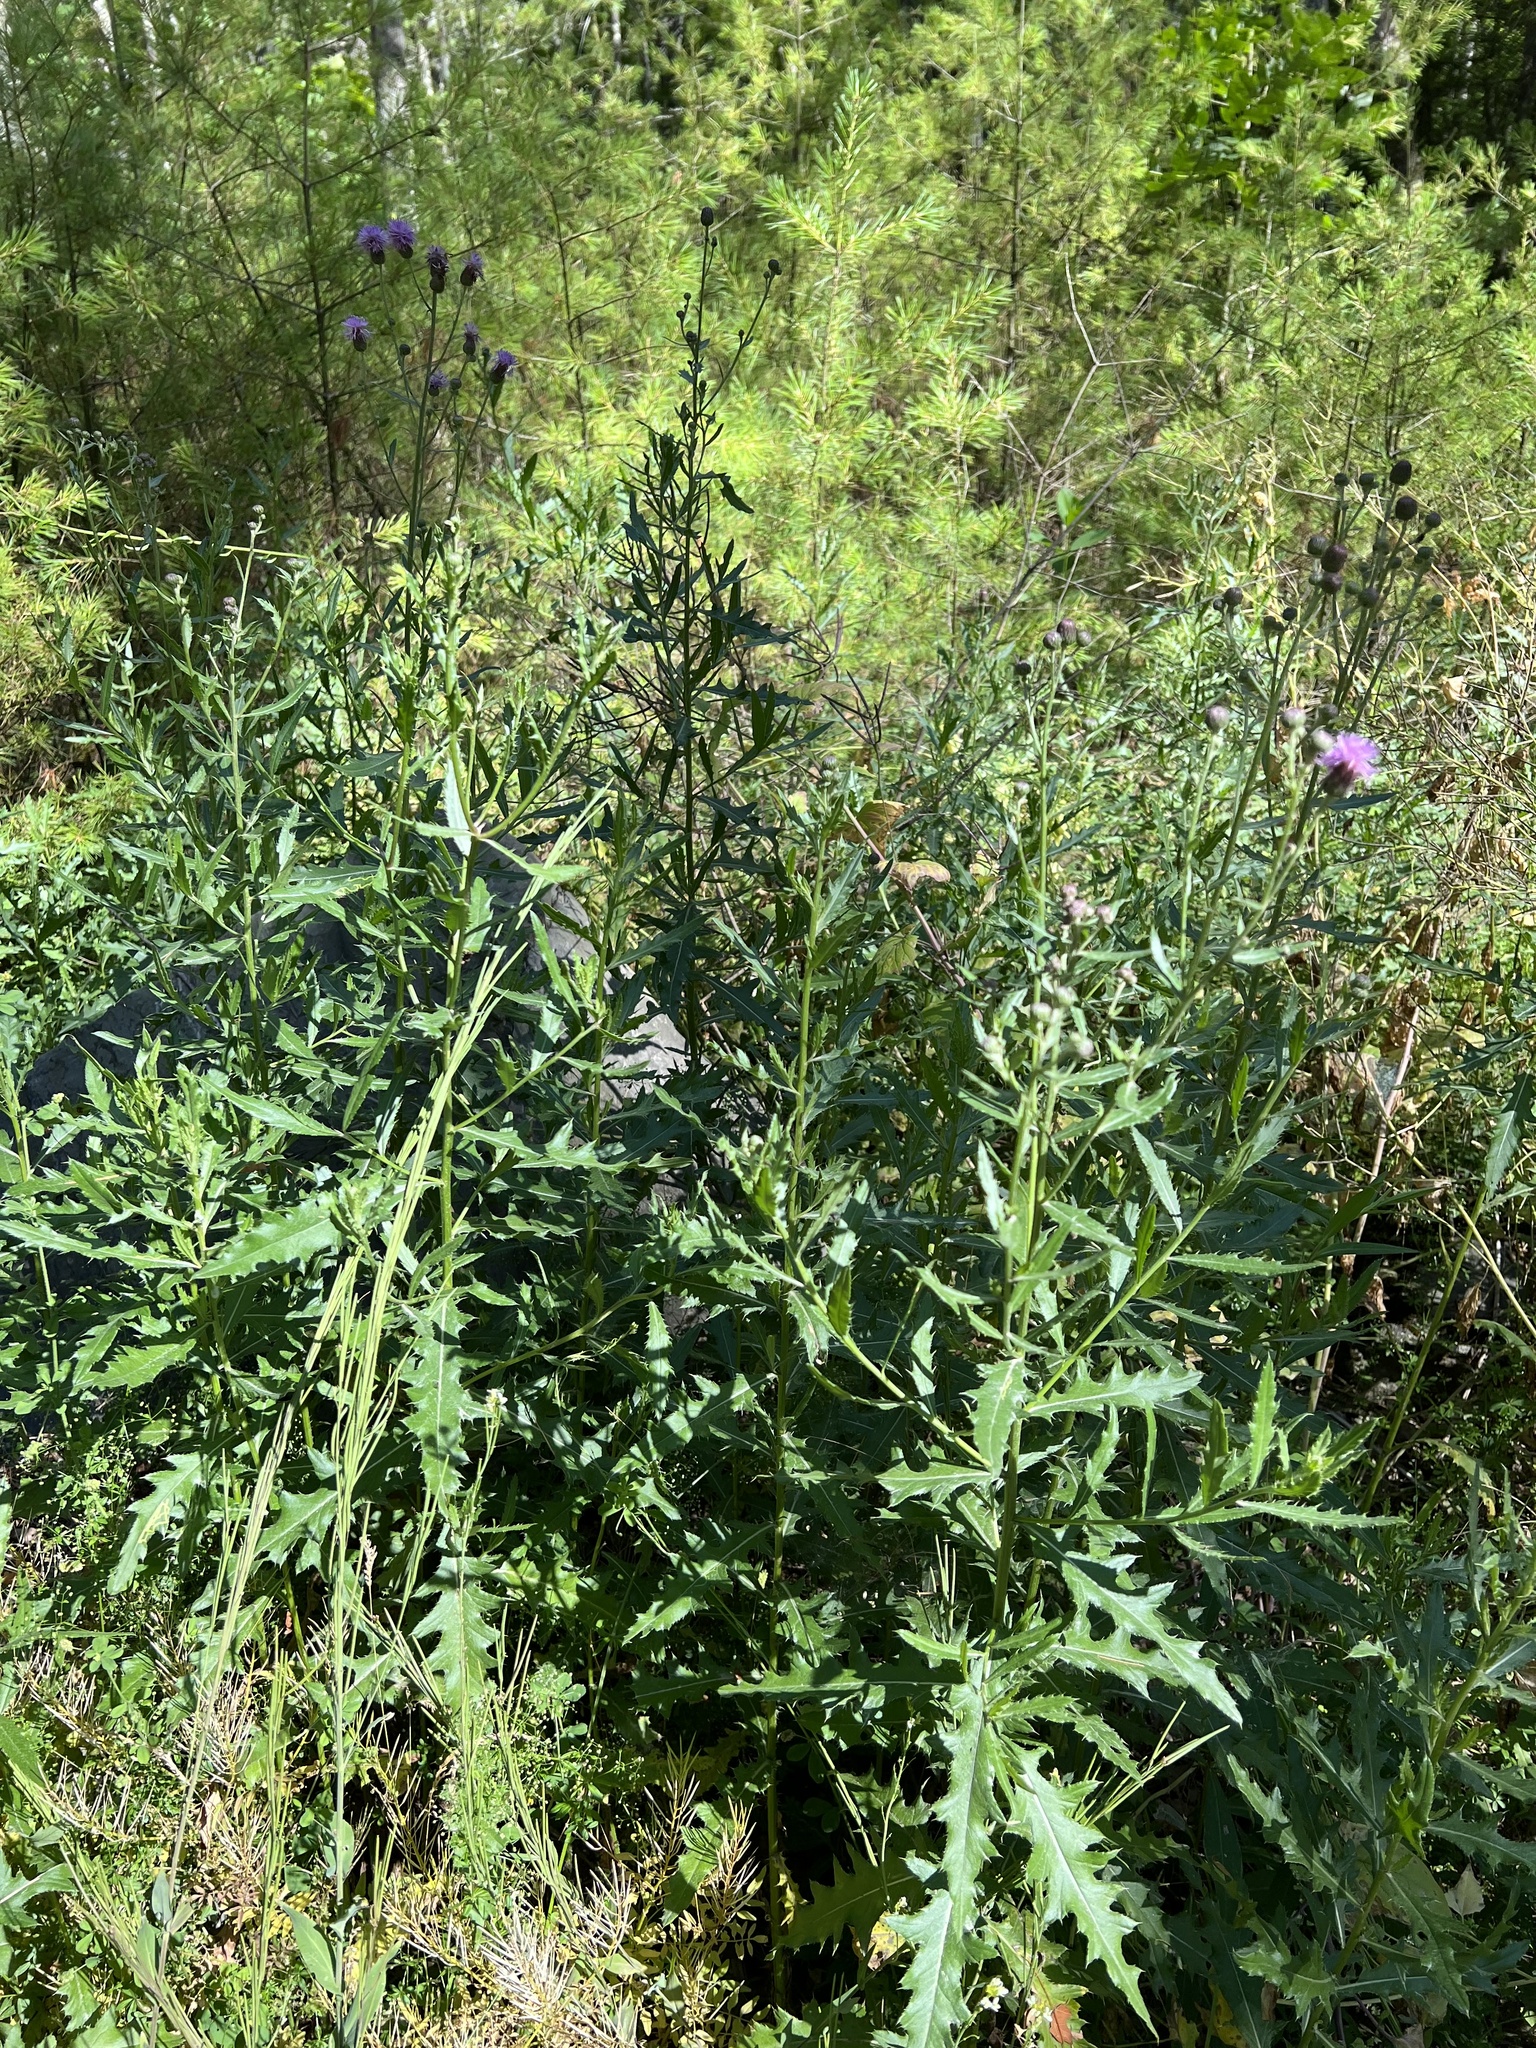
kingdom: Plantae
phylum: Tracheophyta
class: Magnoliopsida
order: Asterales
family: Asteraceae
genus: Cirsium
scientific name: Cirsium arvense
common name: Creeping thistle
